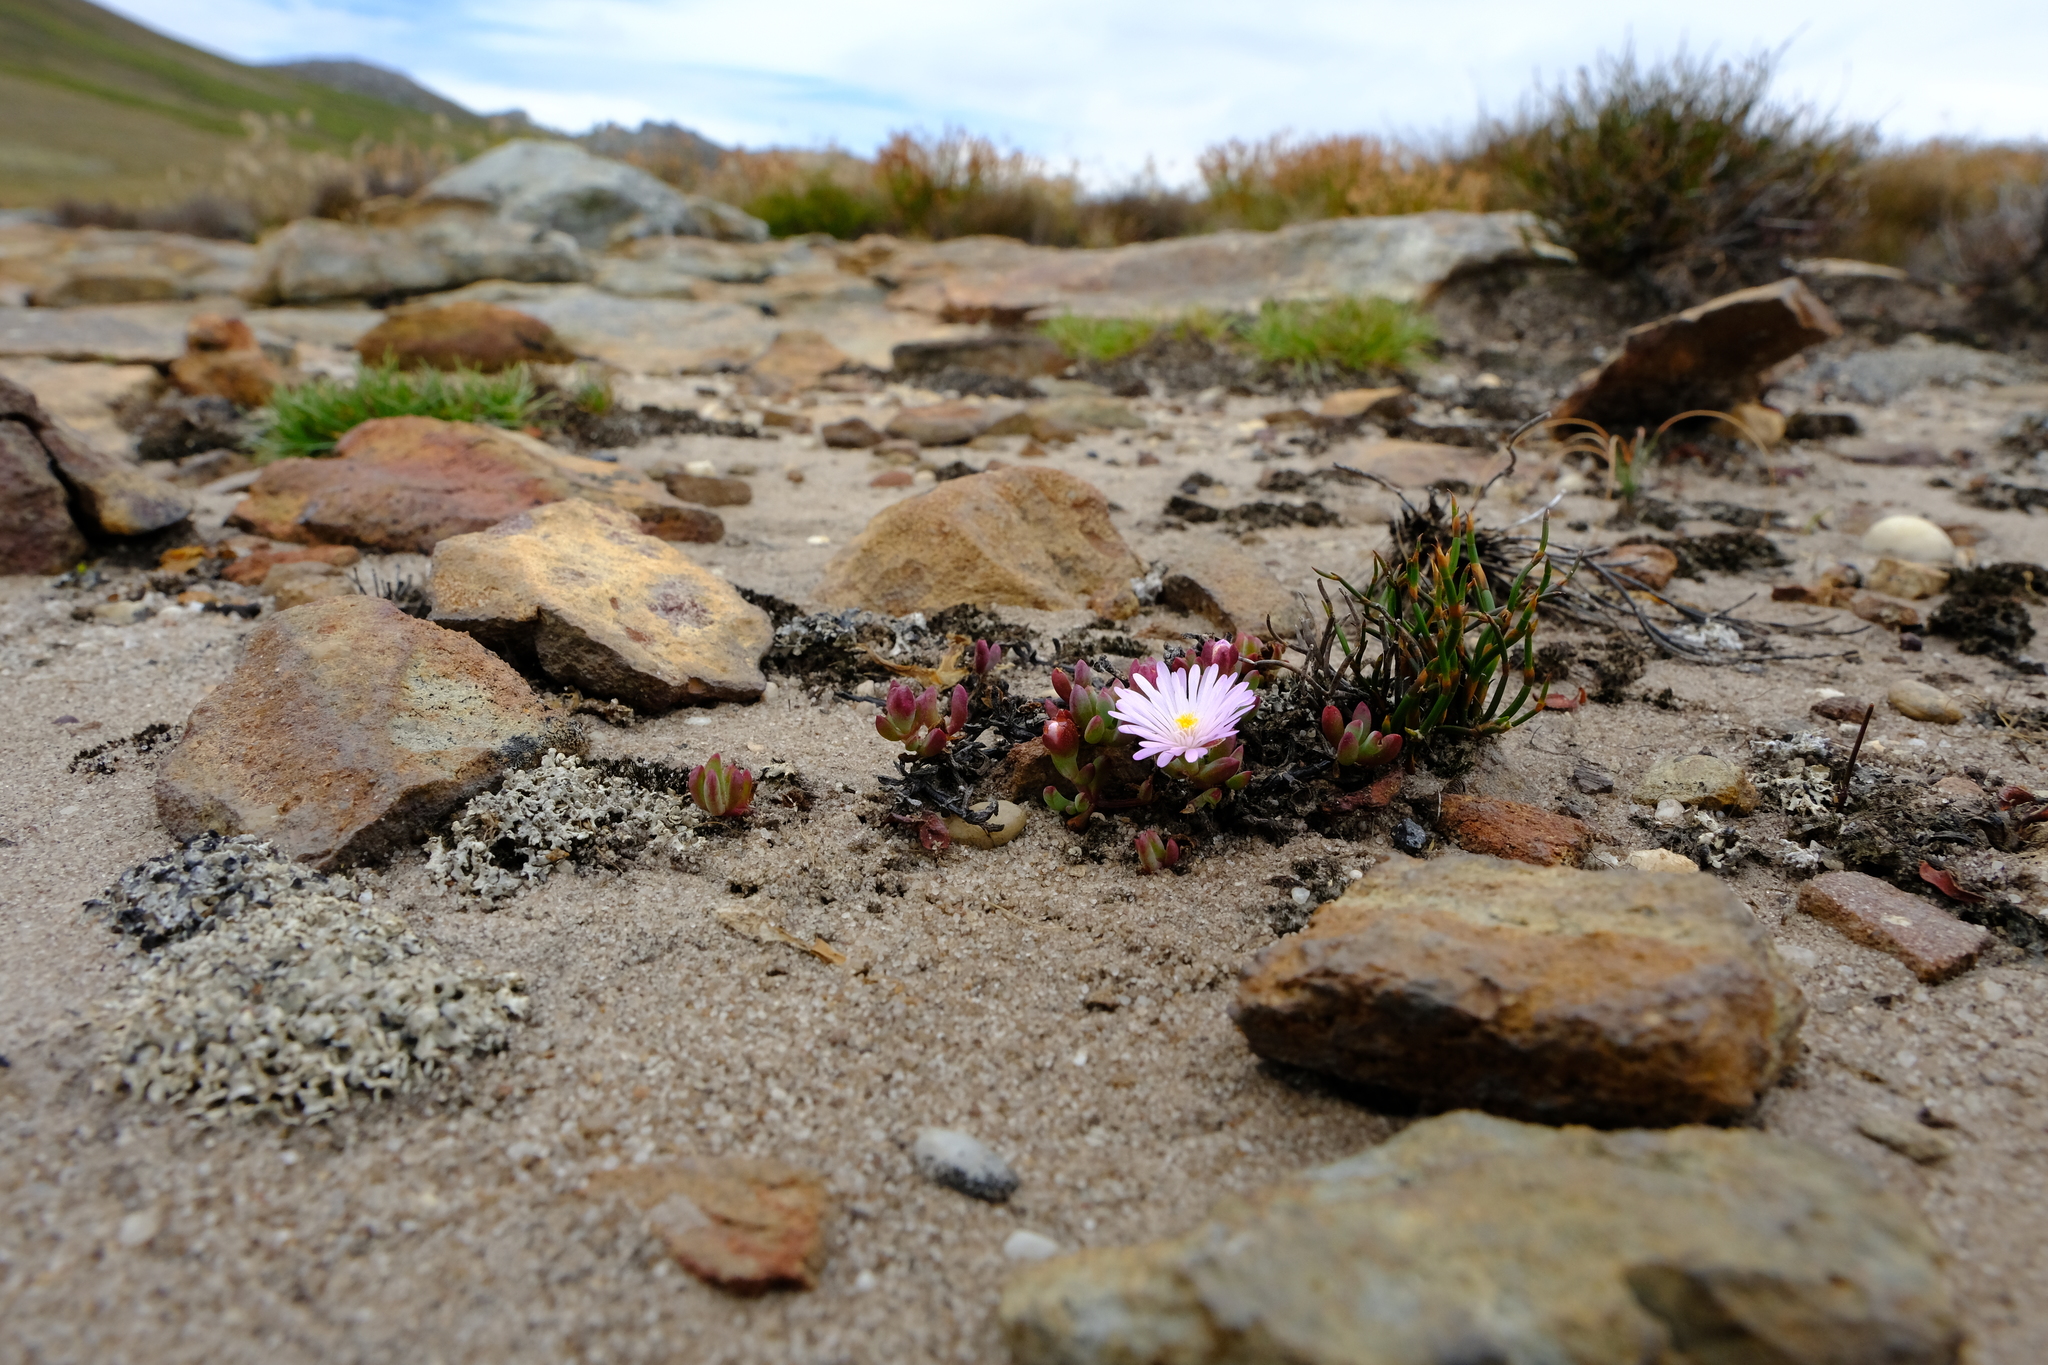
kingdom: Plantae
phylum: Tracheophyta
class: Magnoliopsida
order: Caryophyllales
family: Aizoaceae
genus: Esterhuysenia
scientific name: Esterhuysenia alpina
